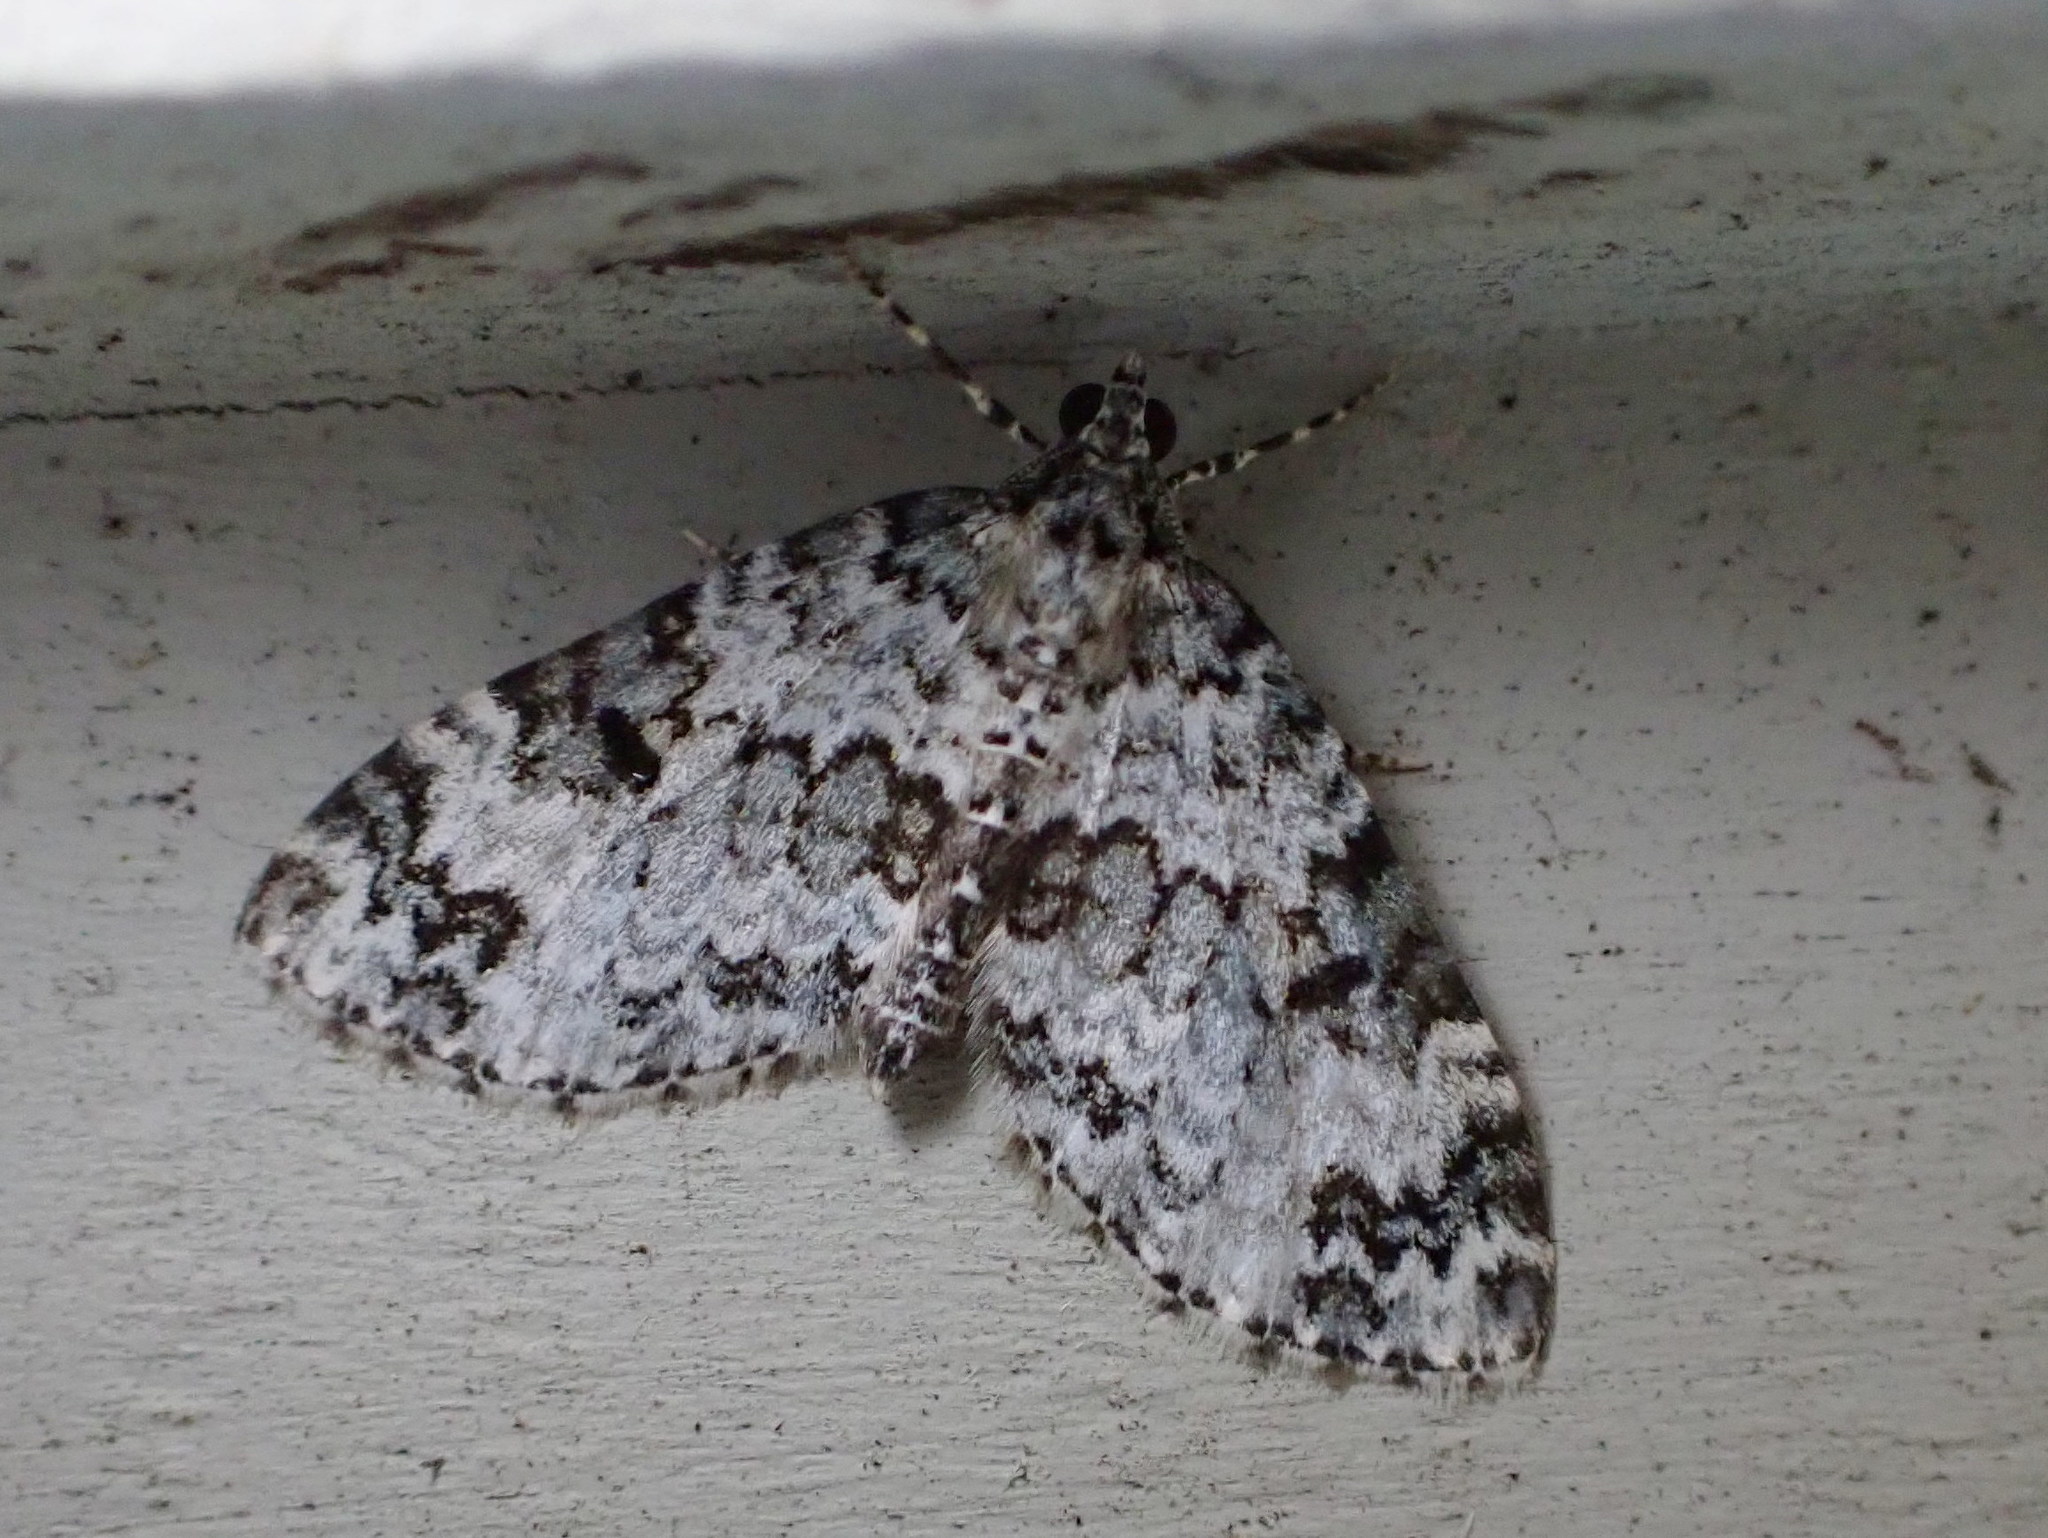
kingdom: Animalia
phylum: Arthropoda
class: Insecta
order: Lepidoptera
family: Geometridae
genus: Spargania
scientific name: Spargania magnoliata
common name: Double-banded carpet
